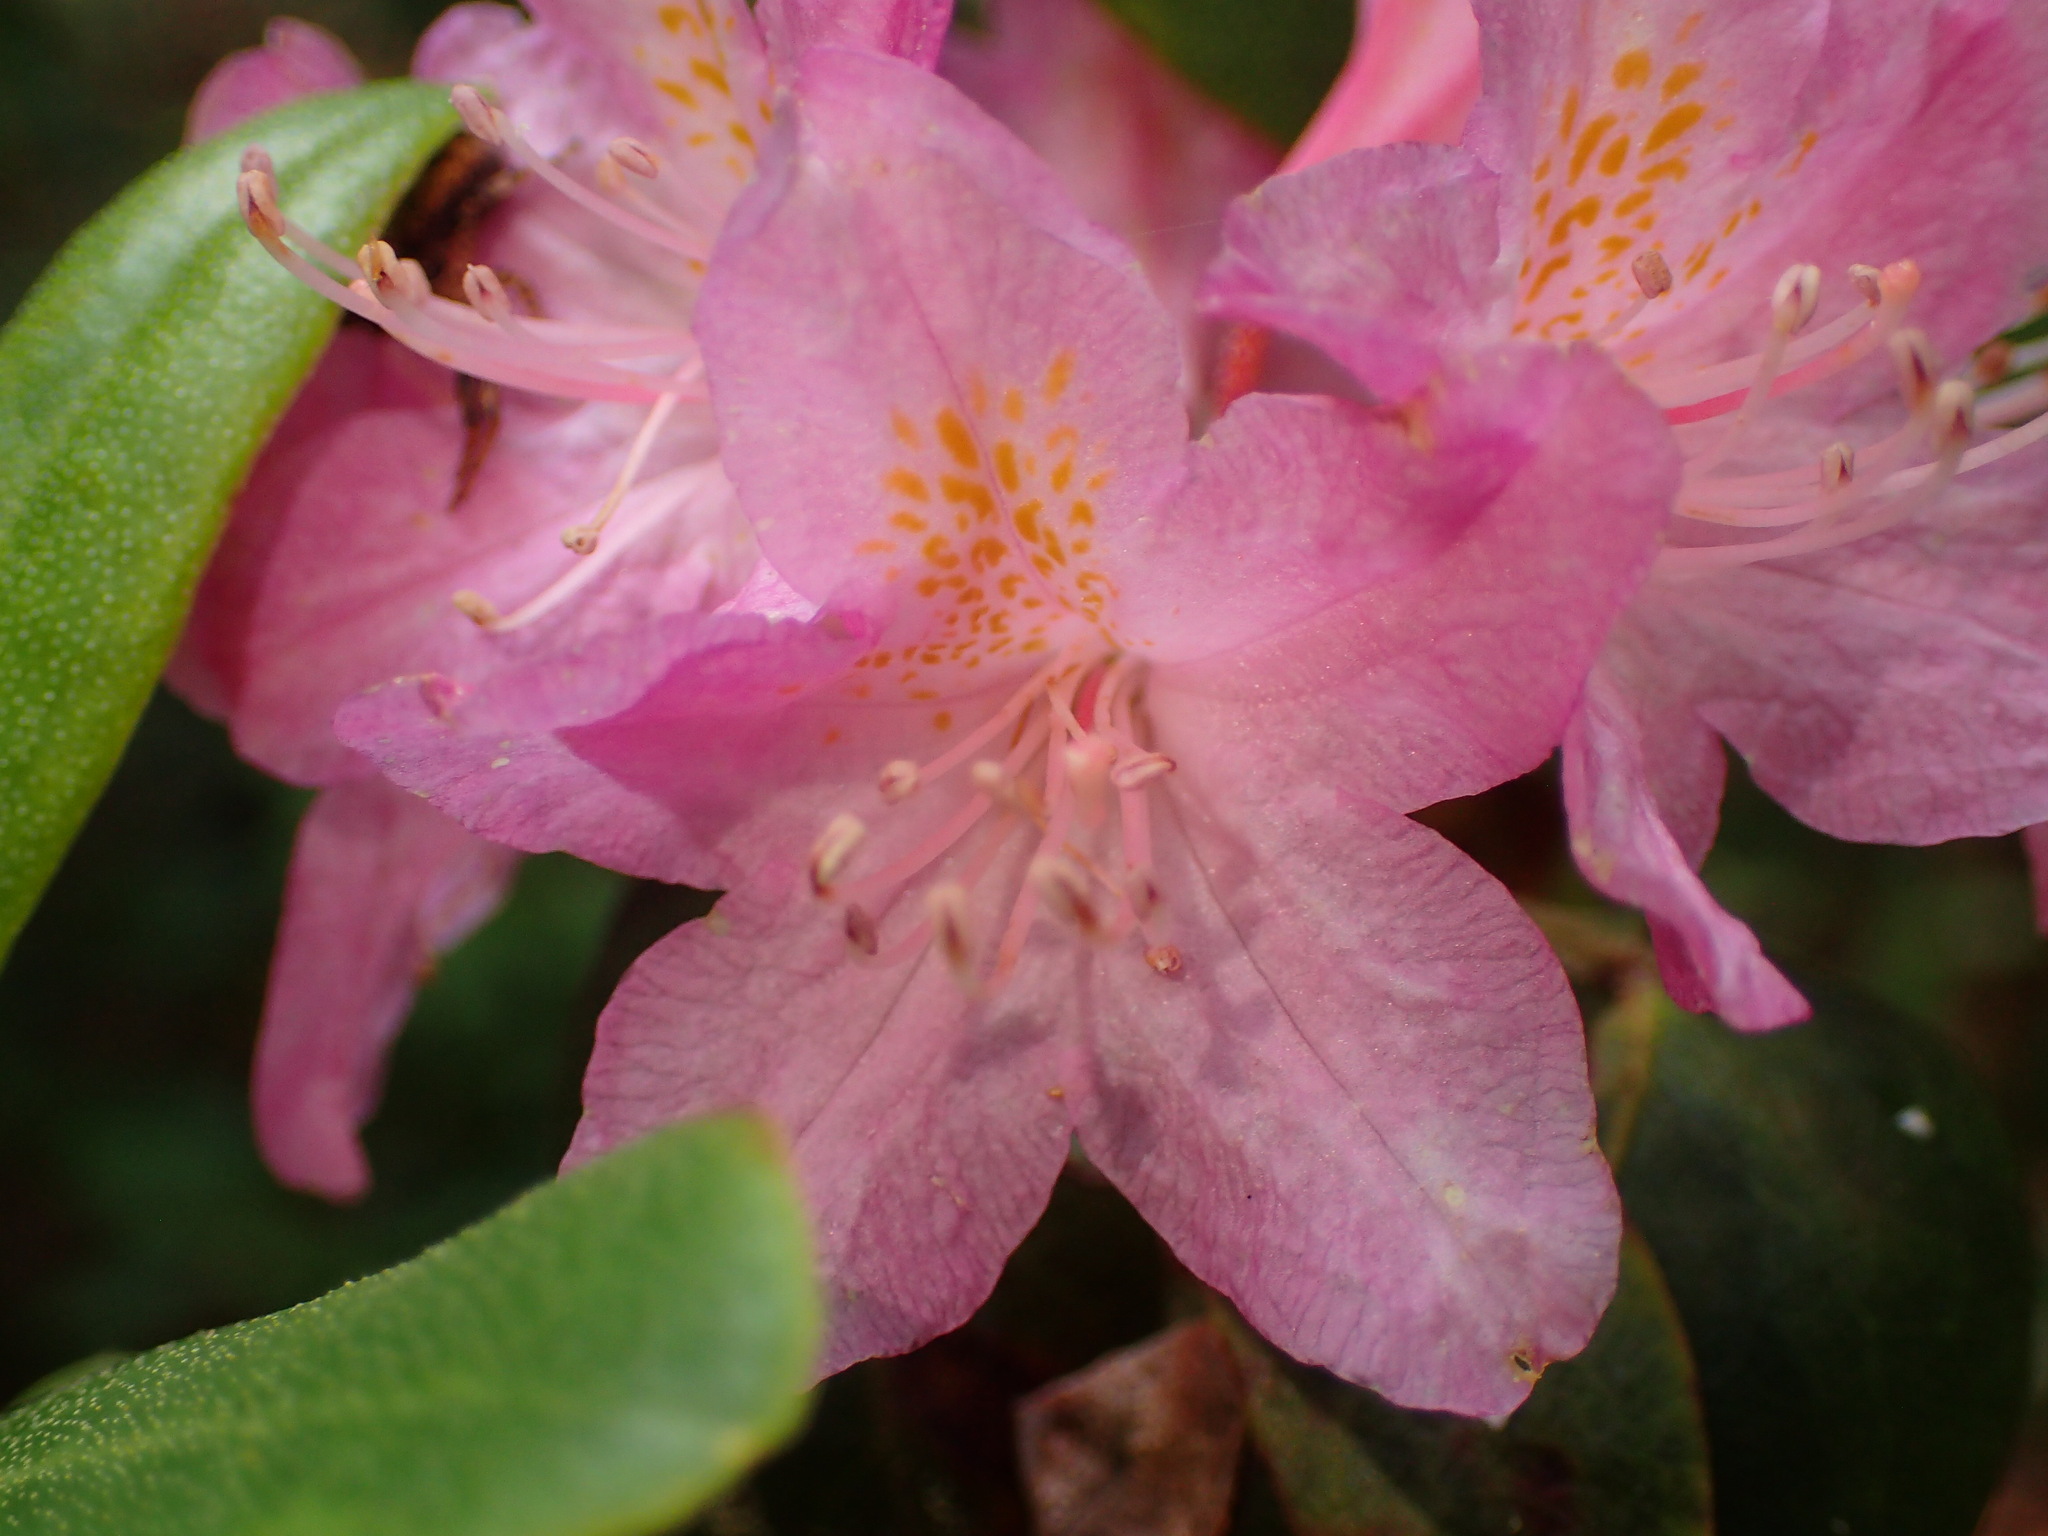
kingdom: Plantae
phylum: Tracheophyta
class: Magnoliopsida
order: Ericales
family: Ericaceae
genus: Rhododendron
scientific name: Rhododendron minus
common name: Piedmont rhododendron
